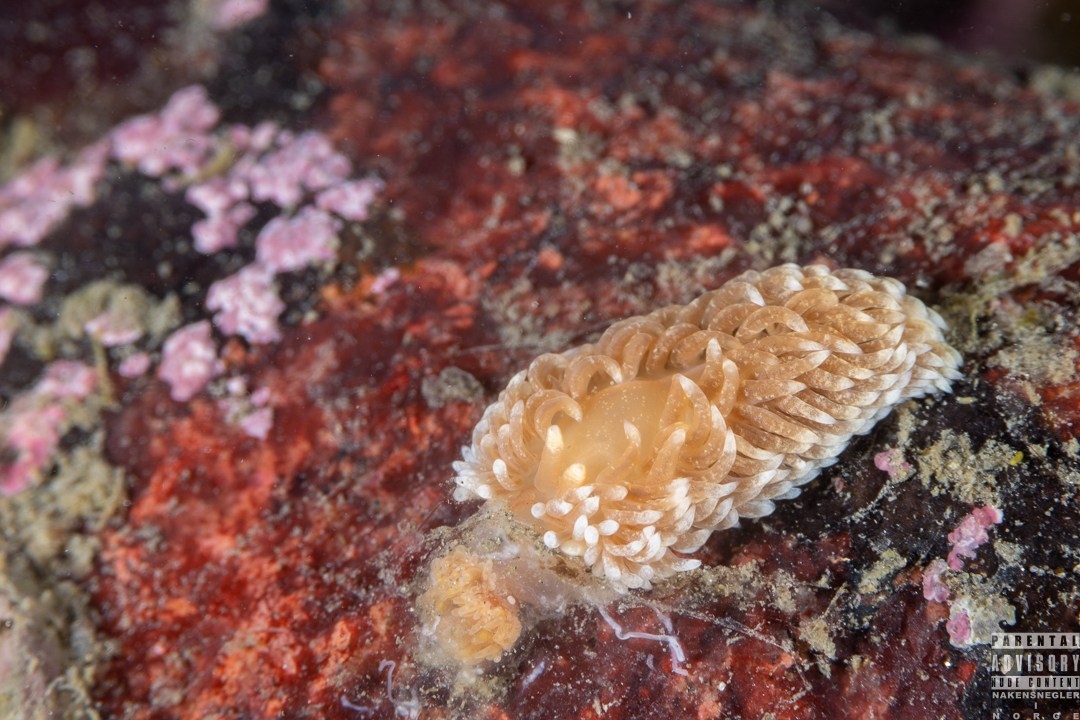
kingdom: Animalia
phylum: Mollusca
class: Gastropoda
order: Nudibranchia
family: Aeolidiidae
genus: Aeolidiella
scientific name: Aeolidiella glauca
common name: Orange-brown aeolid
